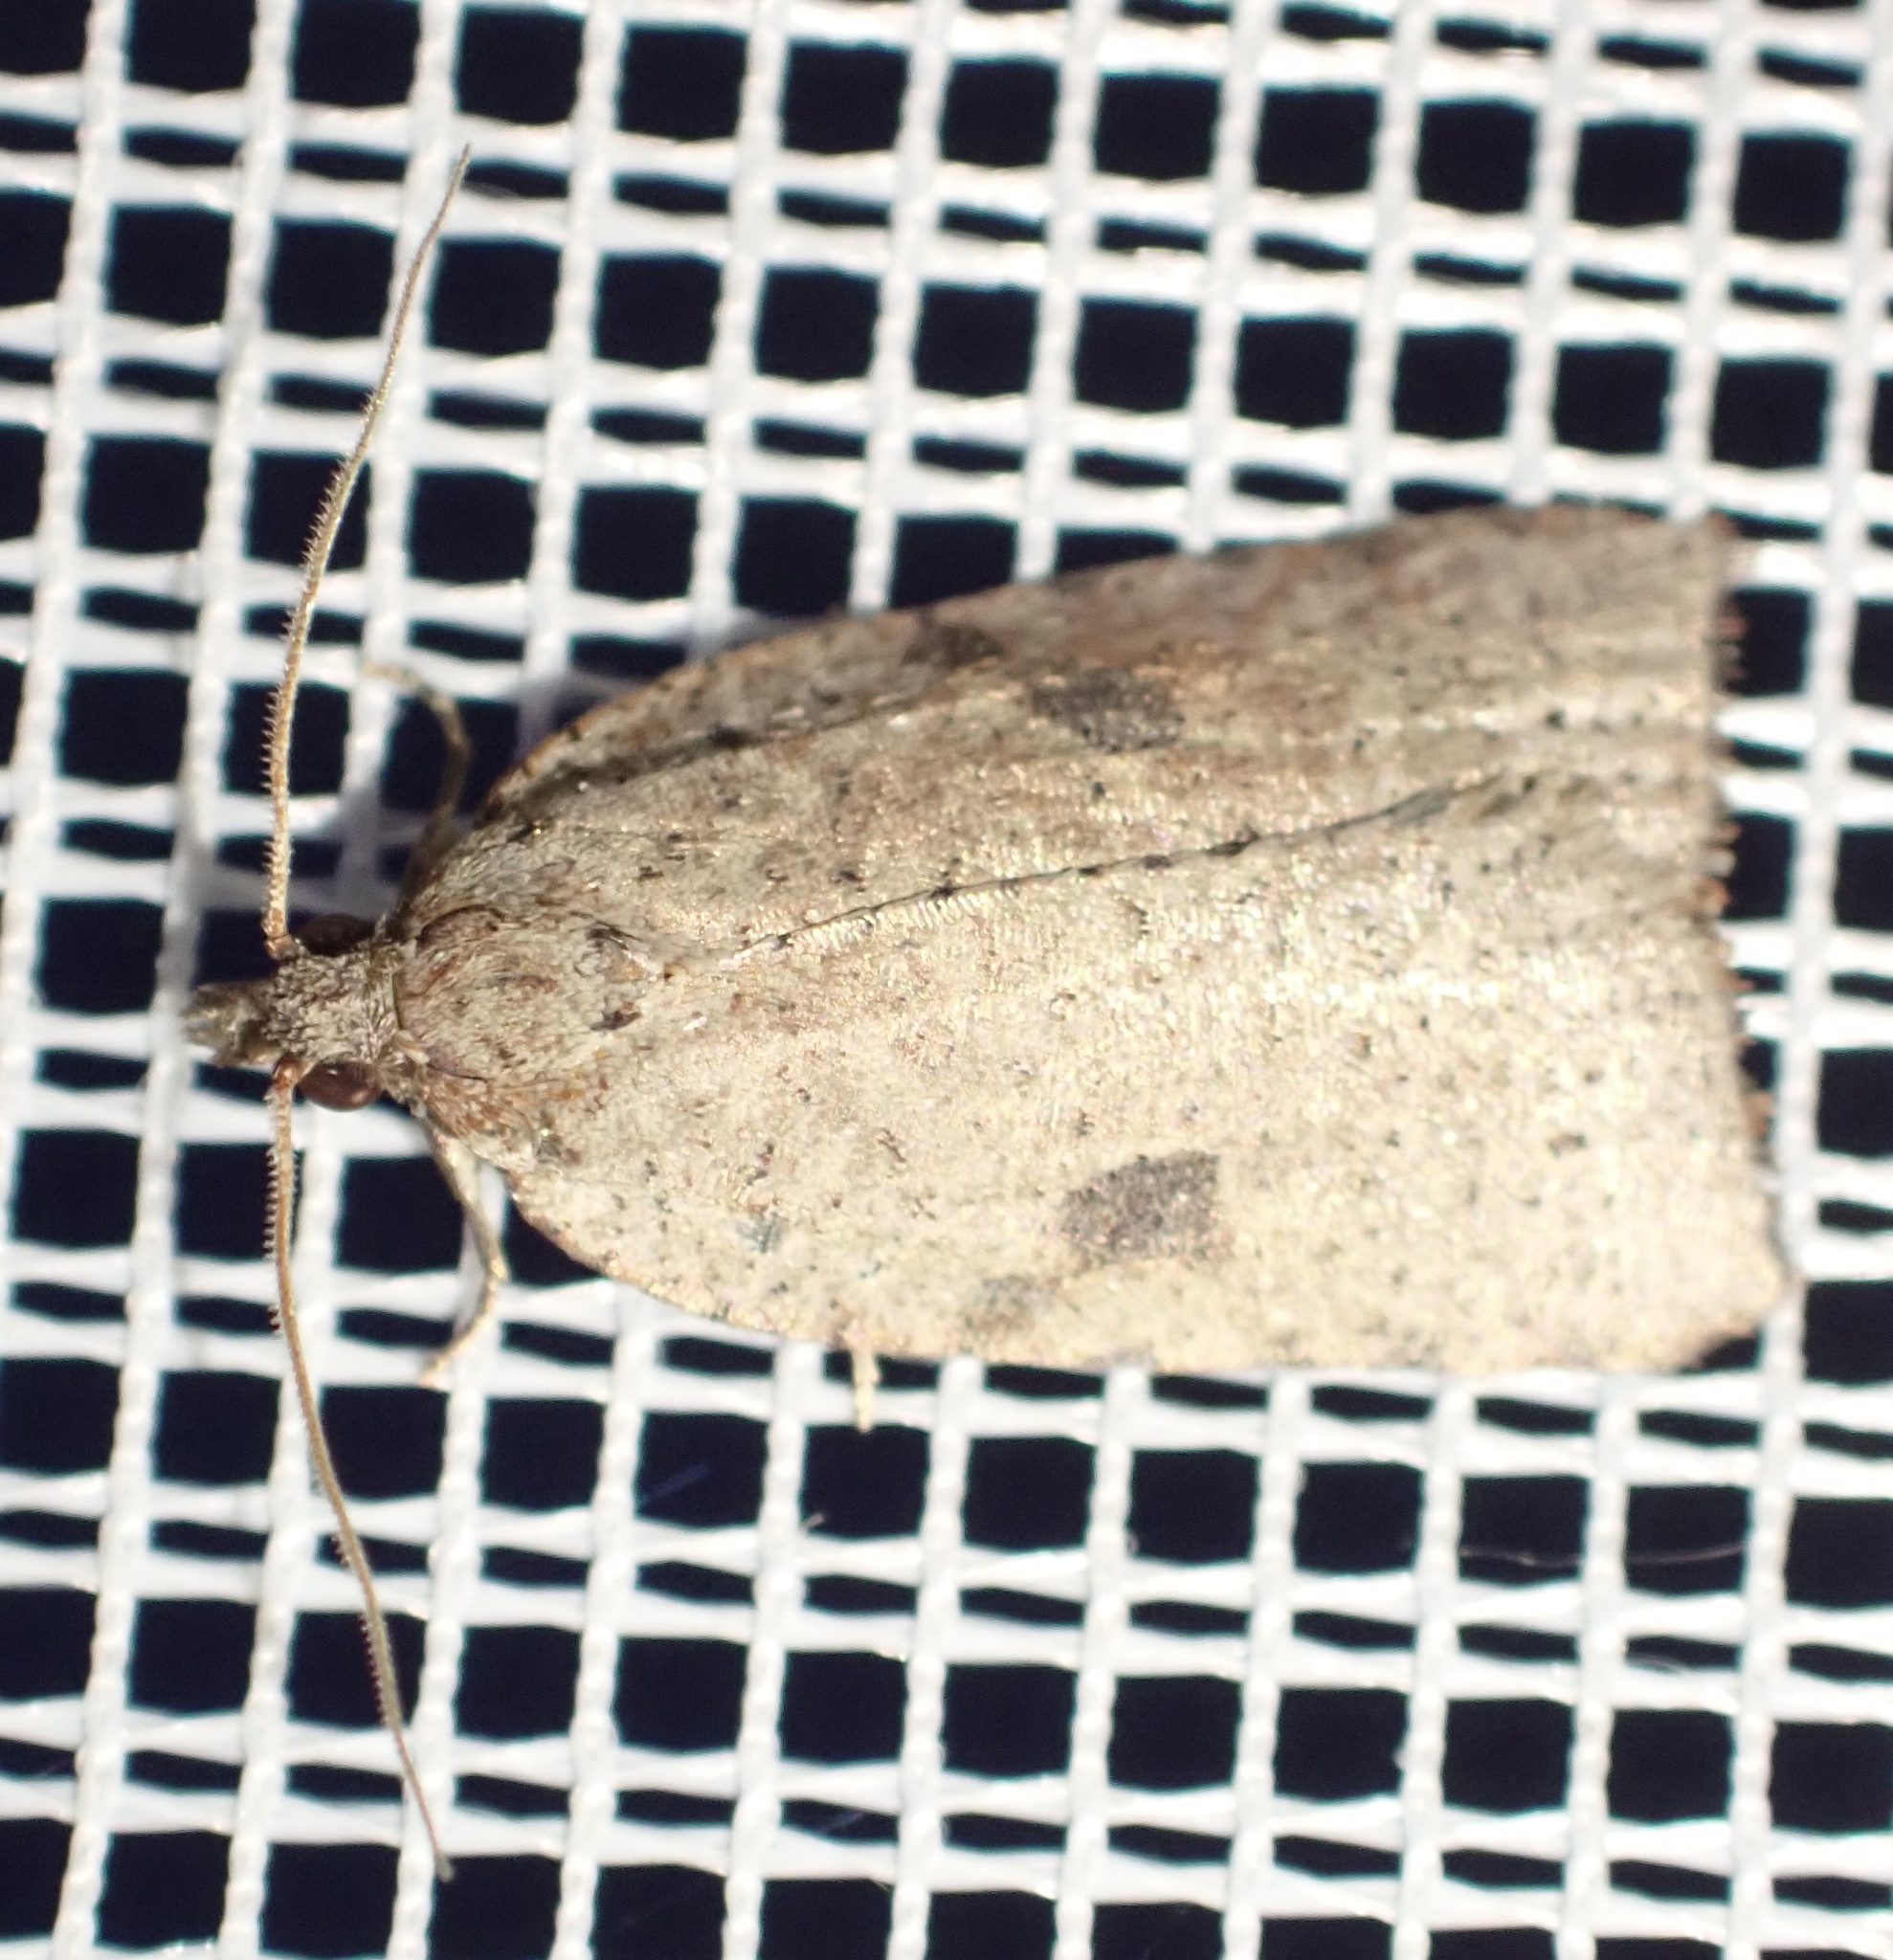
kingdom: Animalia
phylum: Arthropoda
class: Insecta
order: Lepidoptera
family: Tortricidae
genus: Meritastis
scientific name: Meritastis polygraphana
